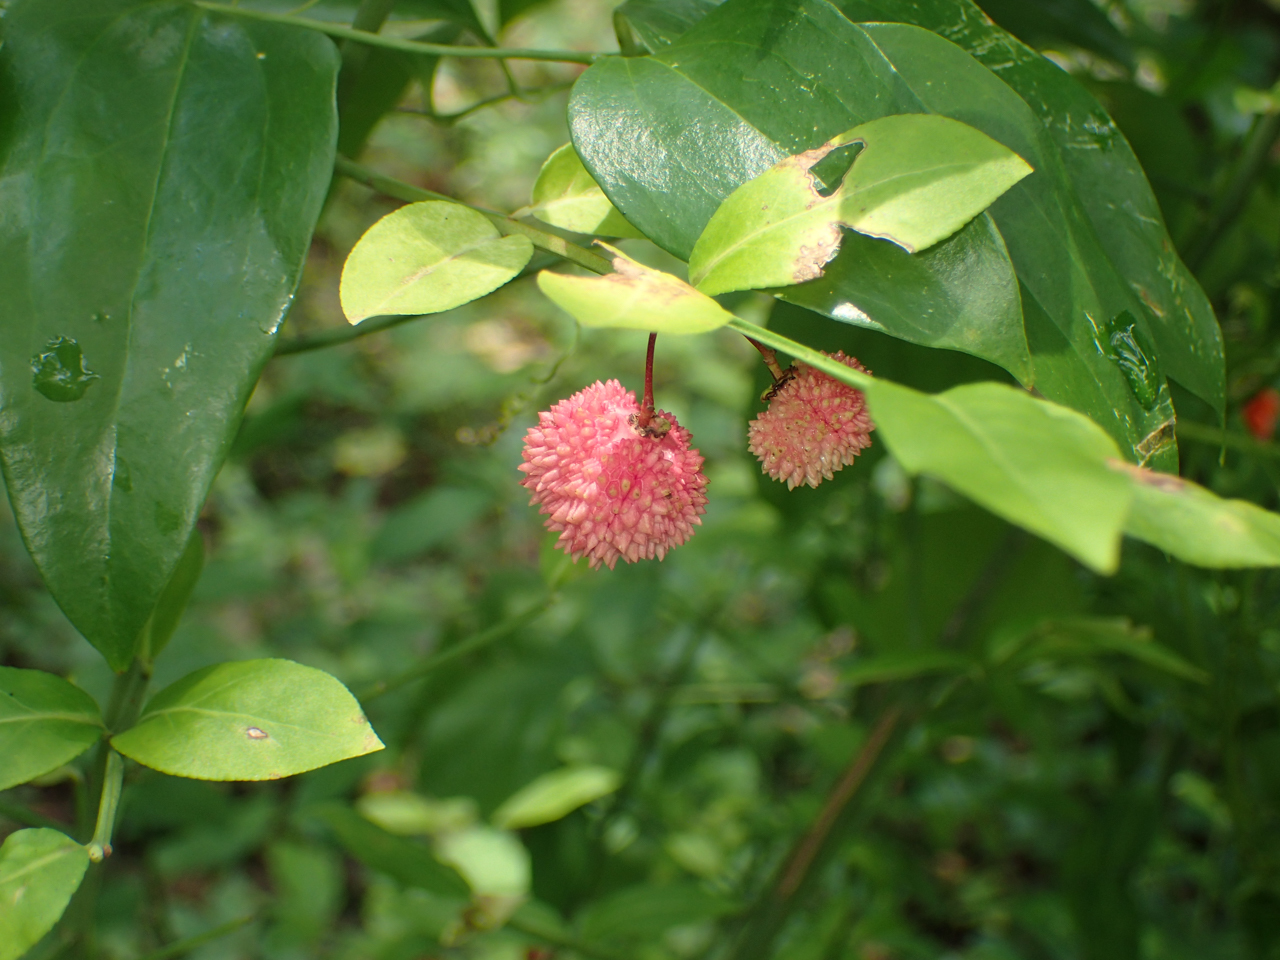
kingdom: Plantae
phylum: Tracheophyta
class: Magnoliopsida
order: Celastrales
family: Celastraceae
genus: Euonymus
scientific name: Euonymus americanus
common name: Bursting-heart
